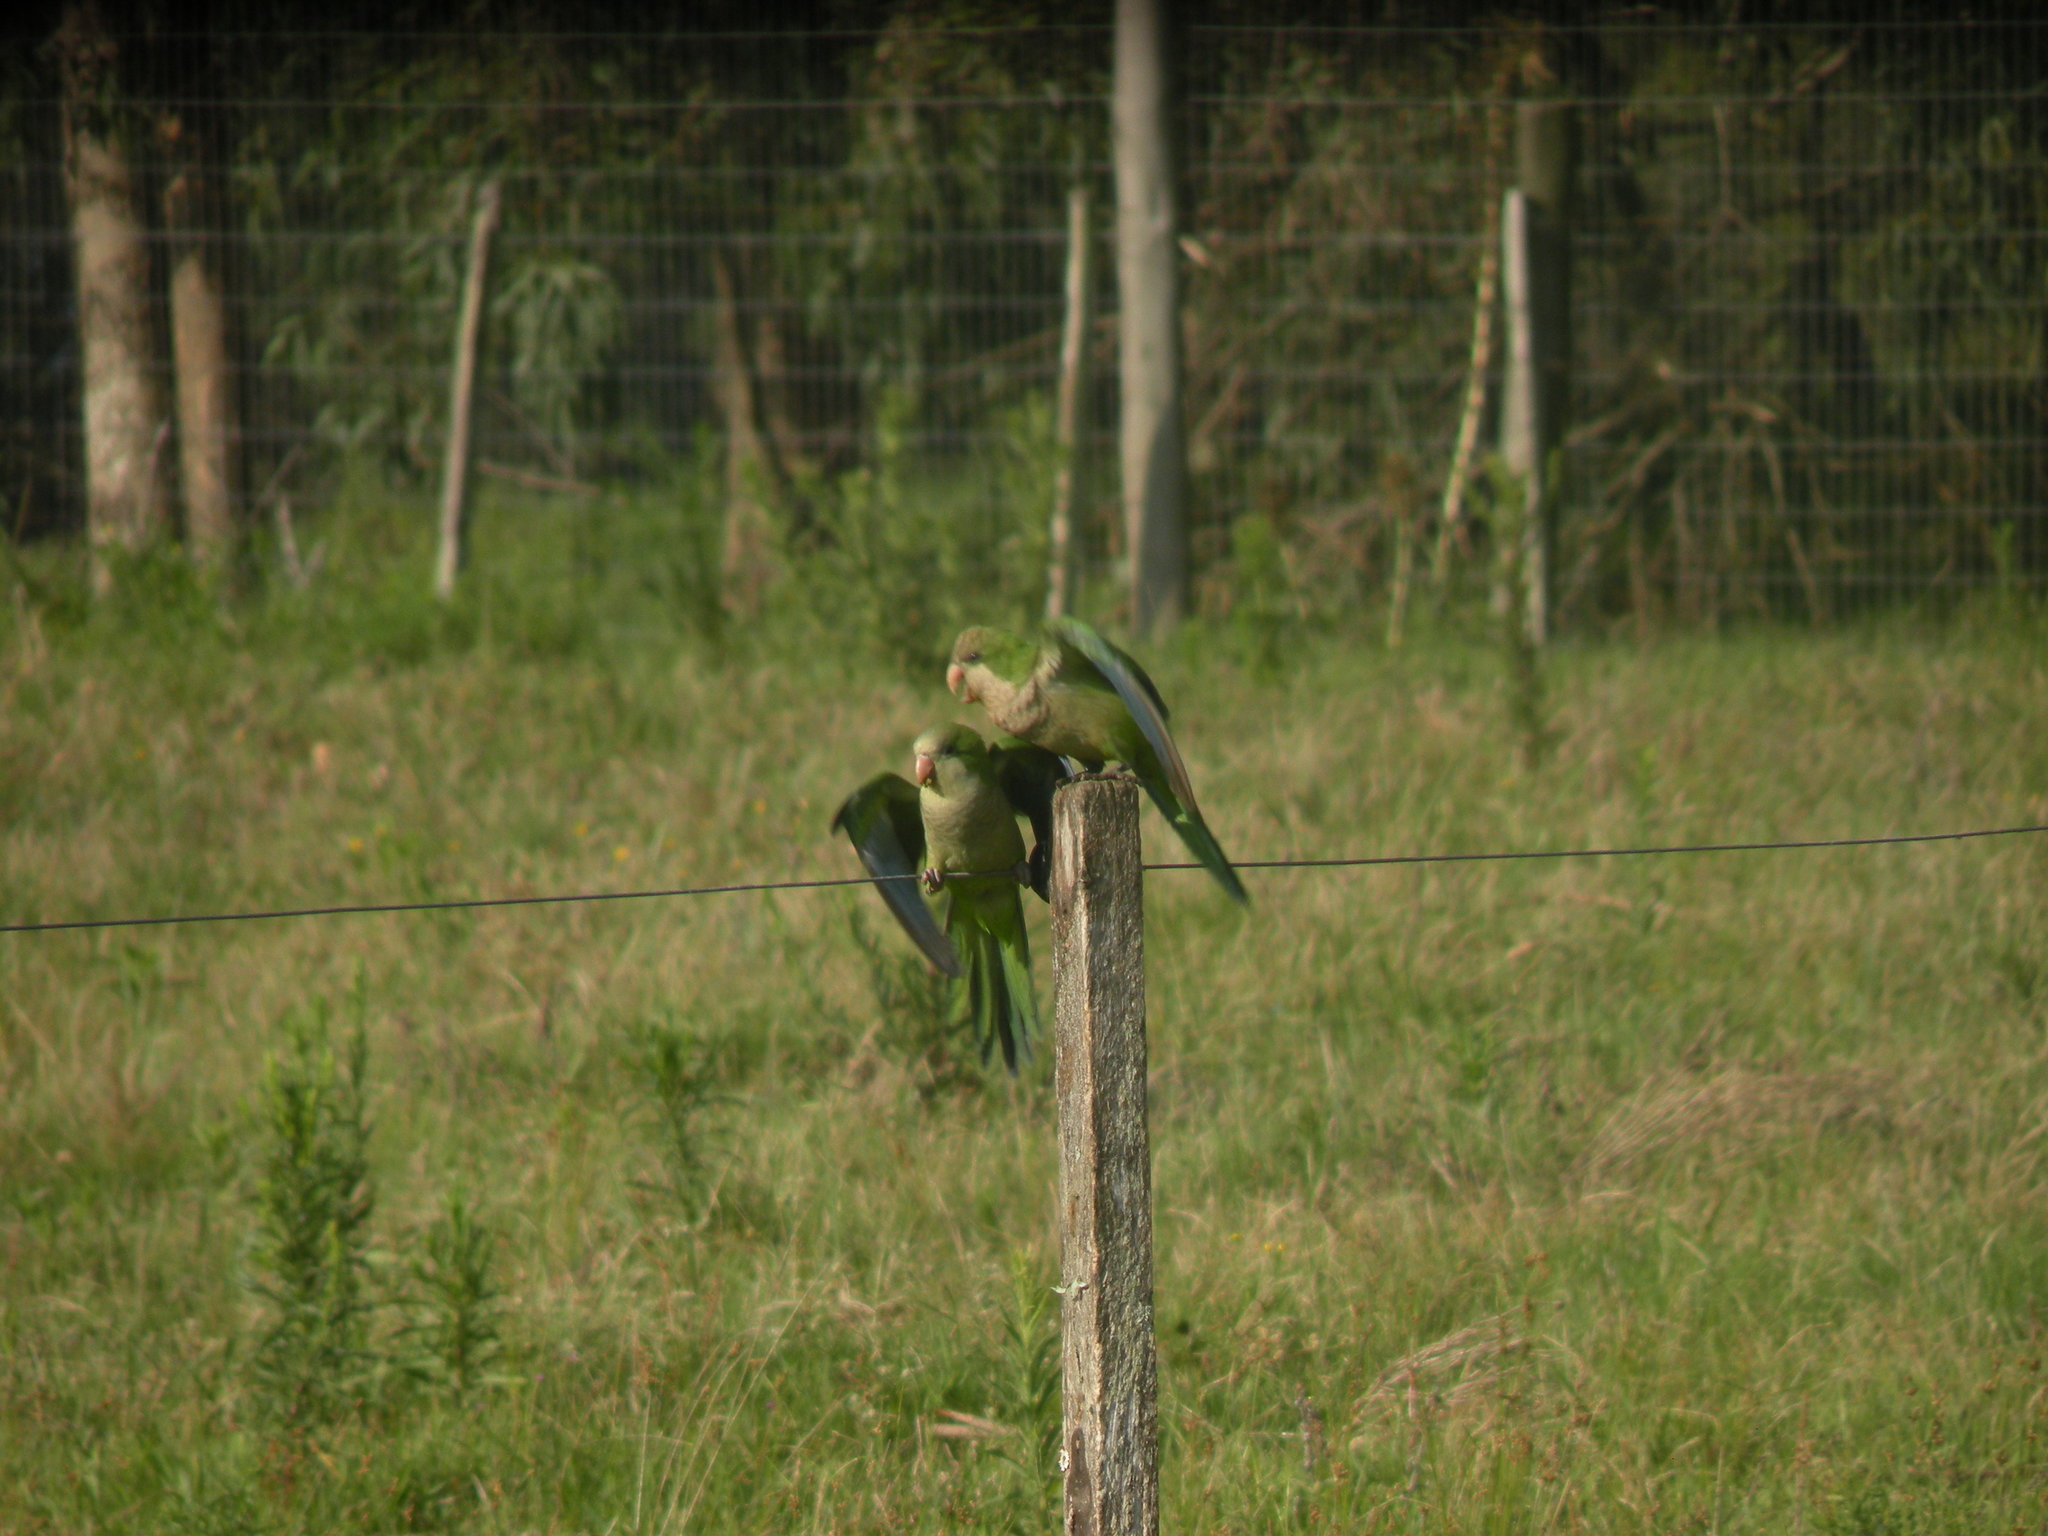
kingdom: Animalia
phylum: Chordata
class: Aves
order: Psittaciformes
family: Psittacidae
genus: Myiopsitta
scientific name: Myiopsitta monachus
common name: Monk parakeet
